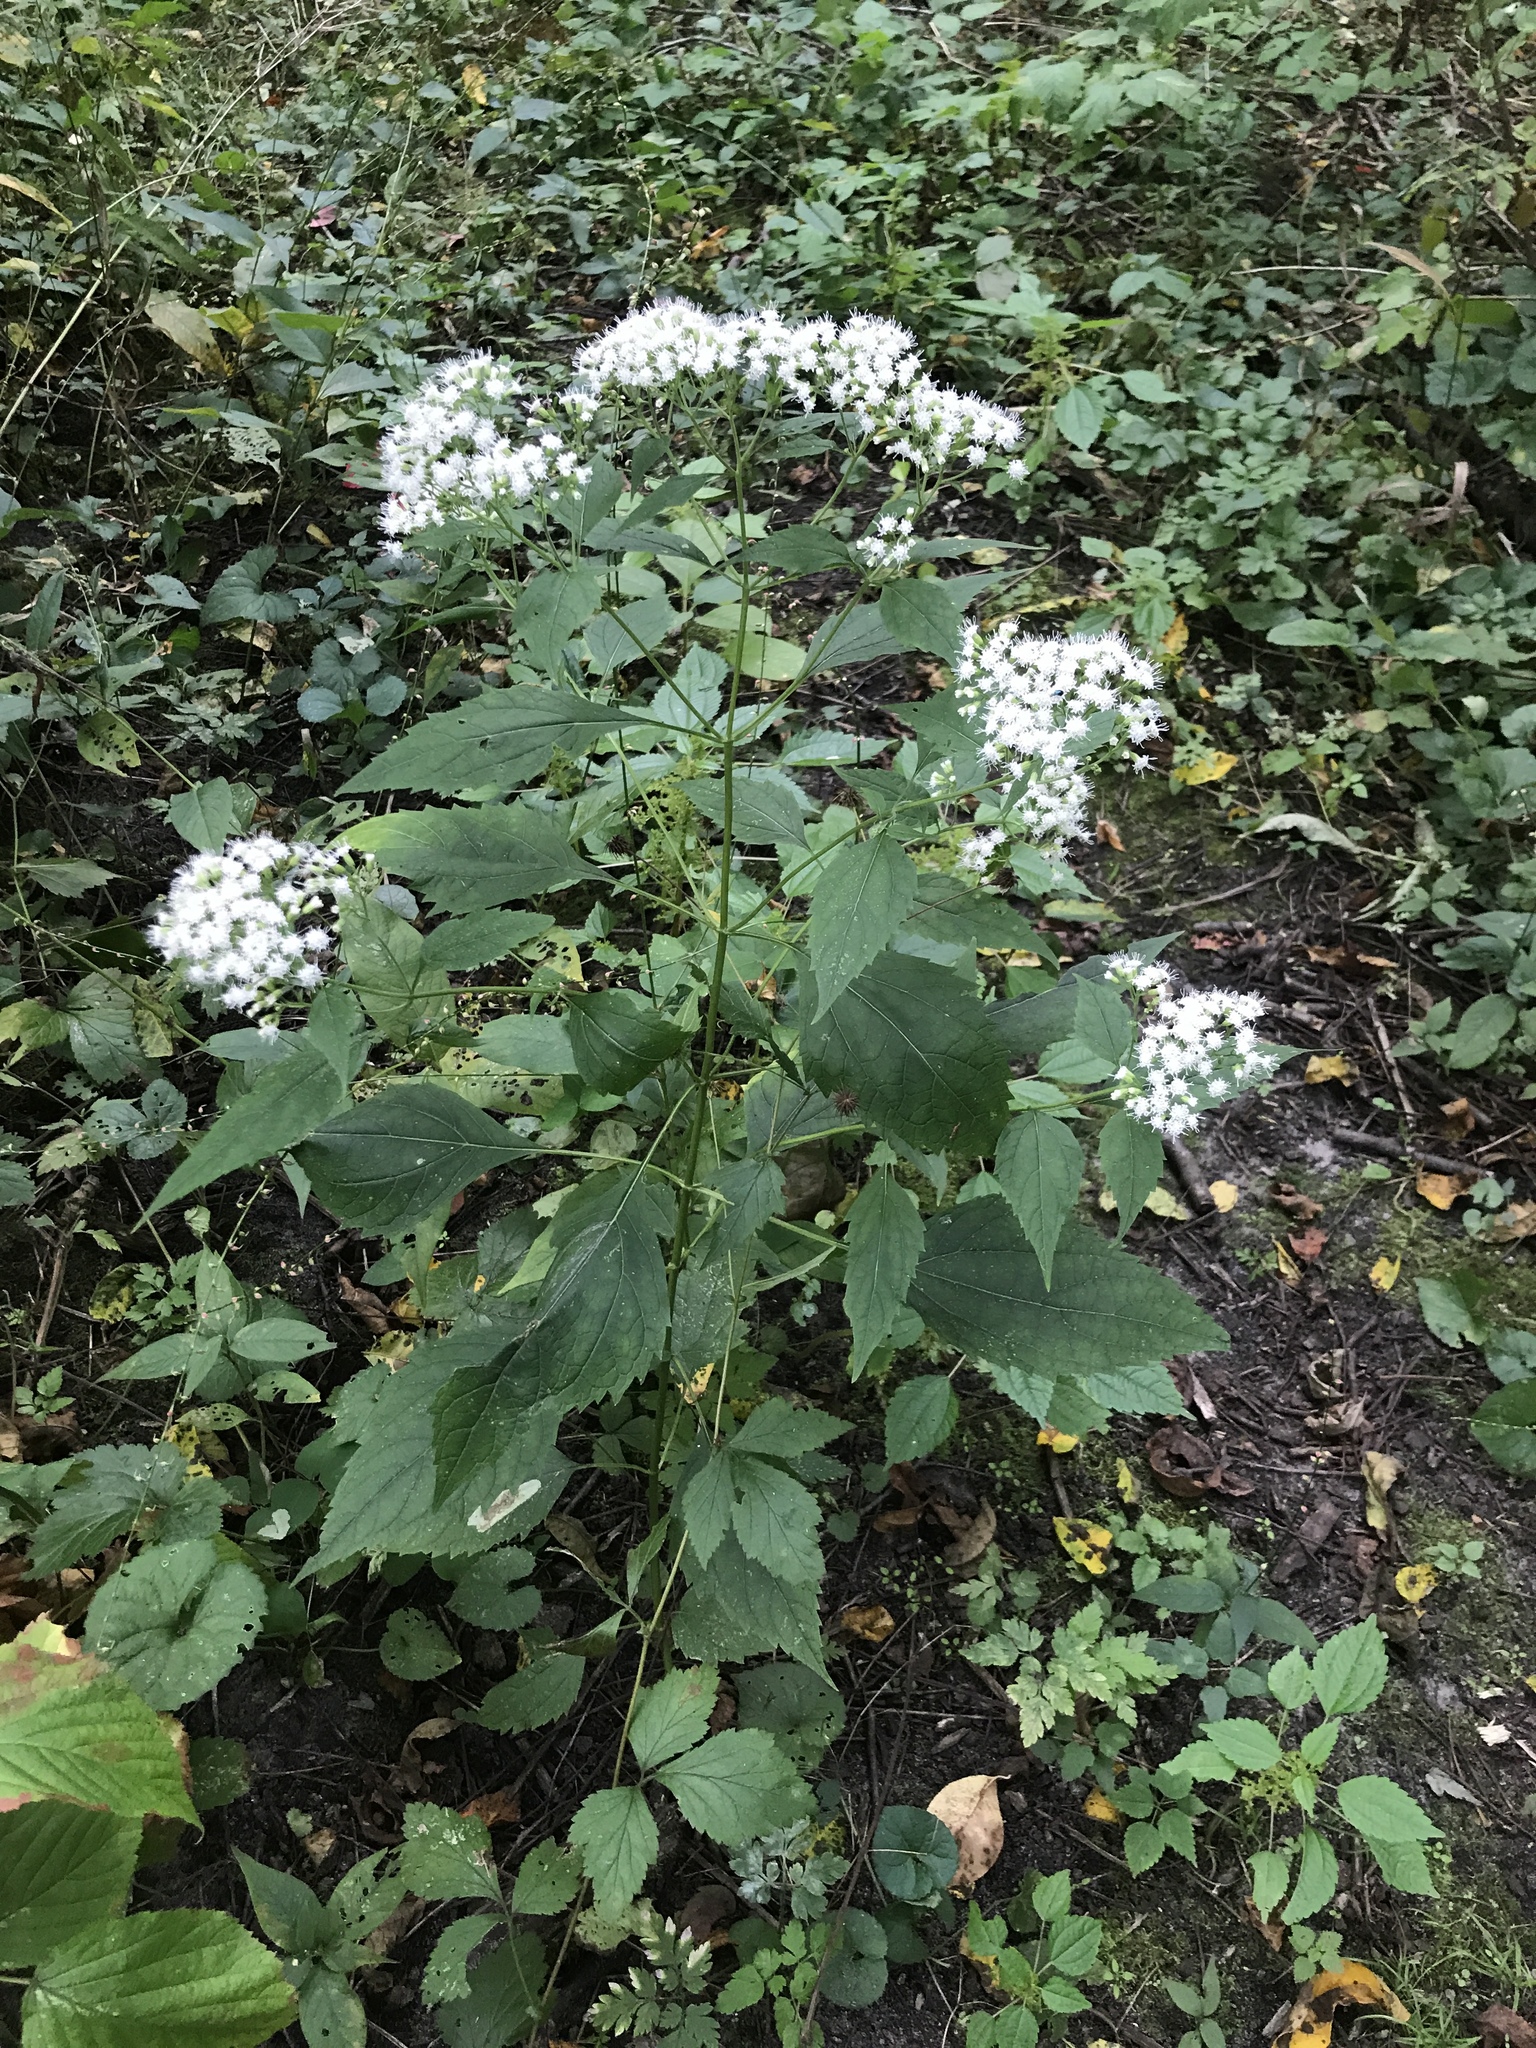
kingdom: Plantae
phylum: Tracheophyta
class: Magnoliopsida
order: Asterales
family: Asteraceae
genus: Ageratina
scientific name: Ageratina altissima
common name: White snakeroot
